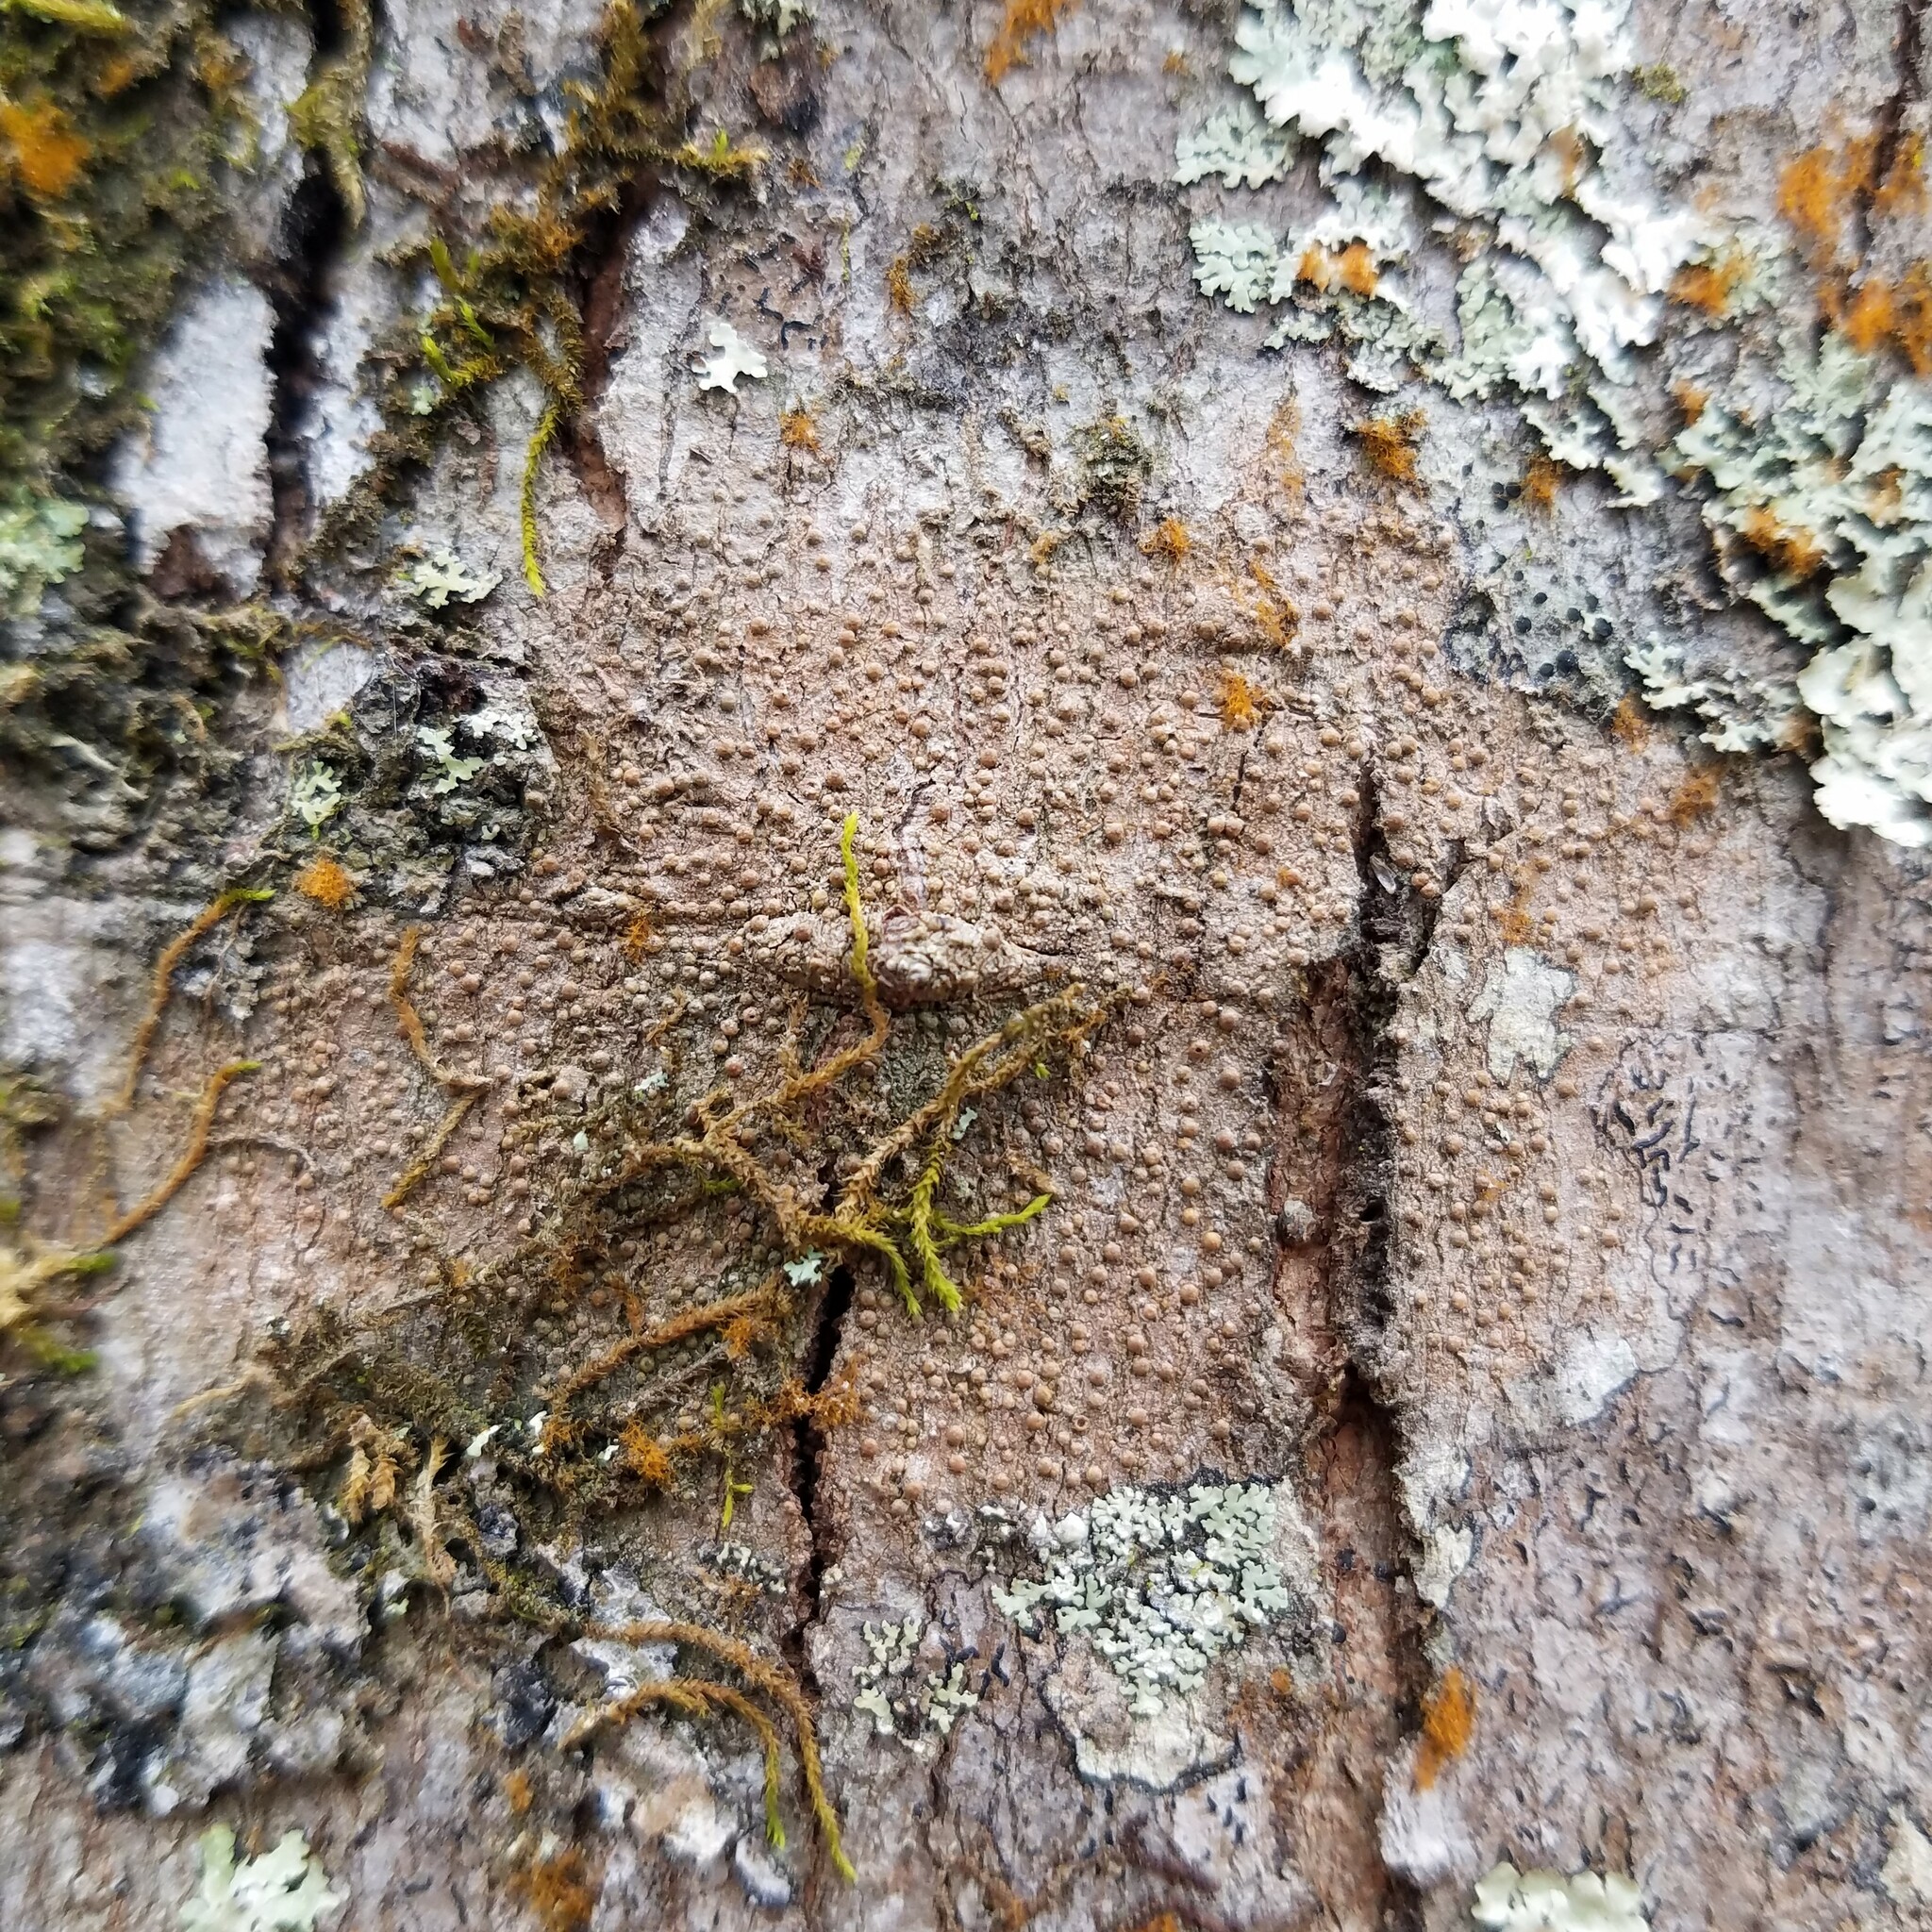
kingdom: Fungi
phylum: Ascomycota
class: Lecanoromycetes
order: Pertusariales
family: Pertusariaceae
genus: Porina
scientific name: Porina heterospora
